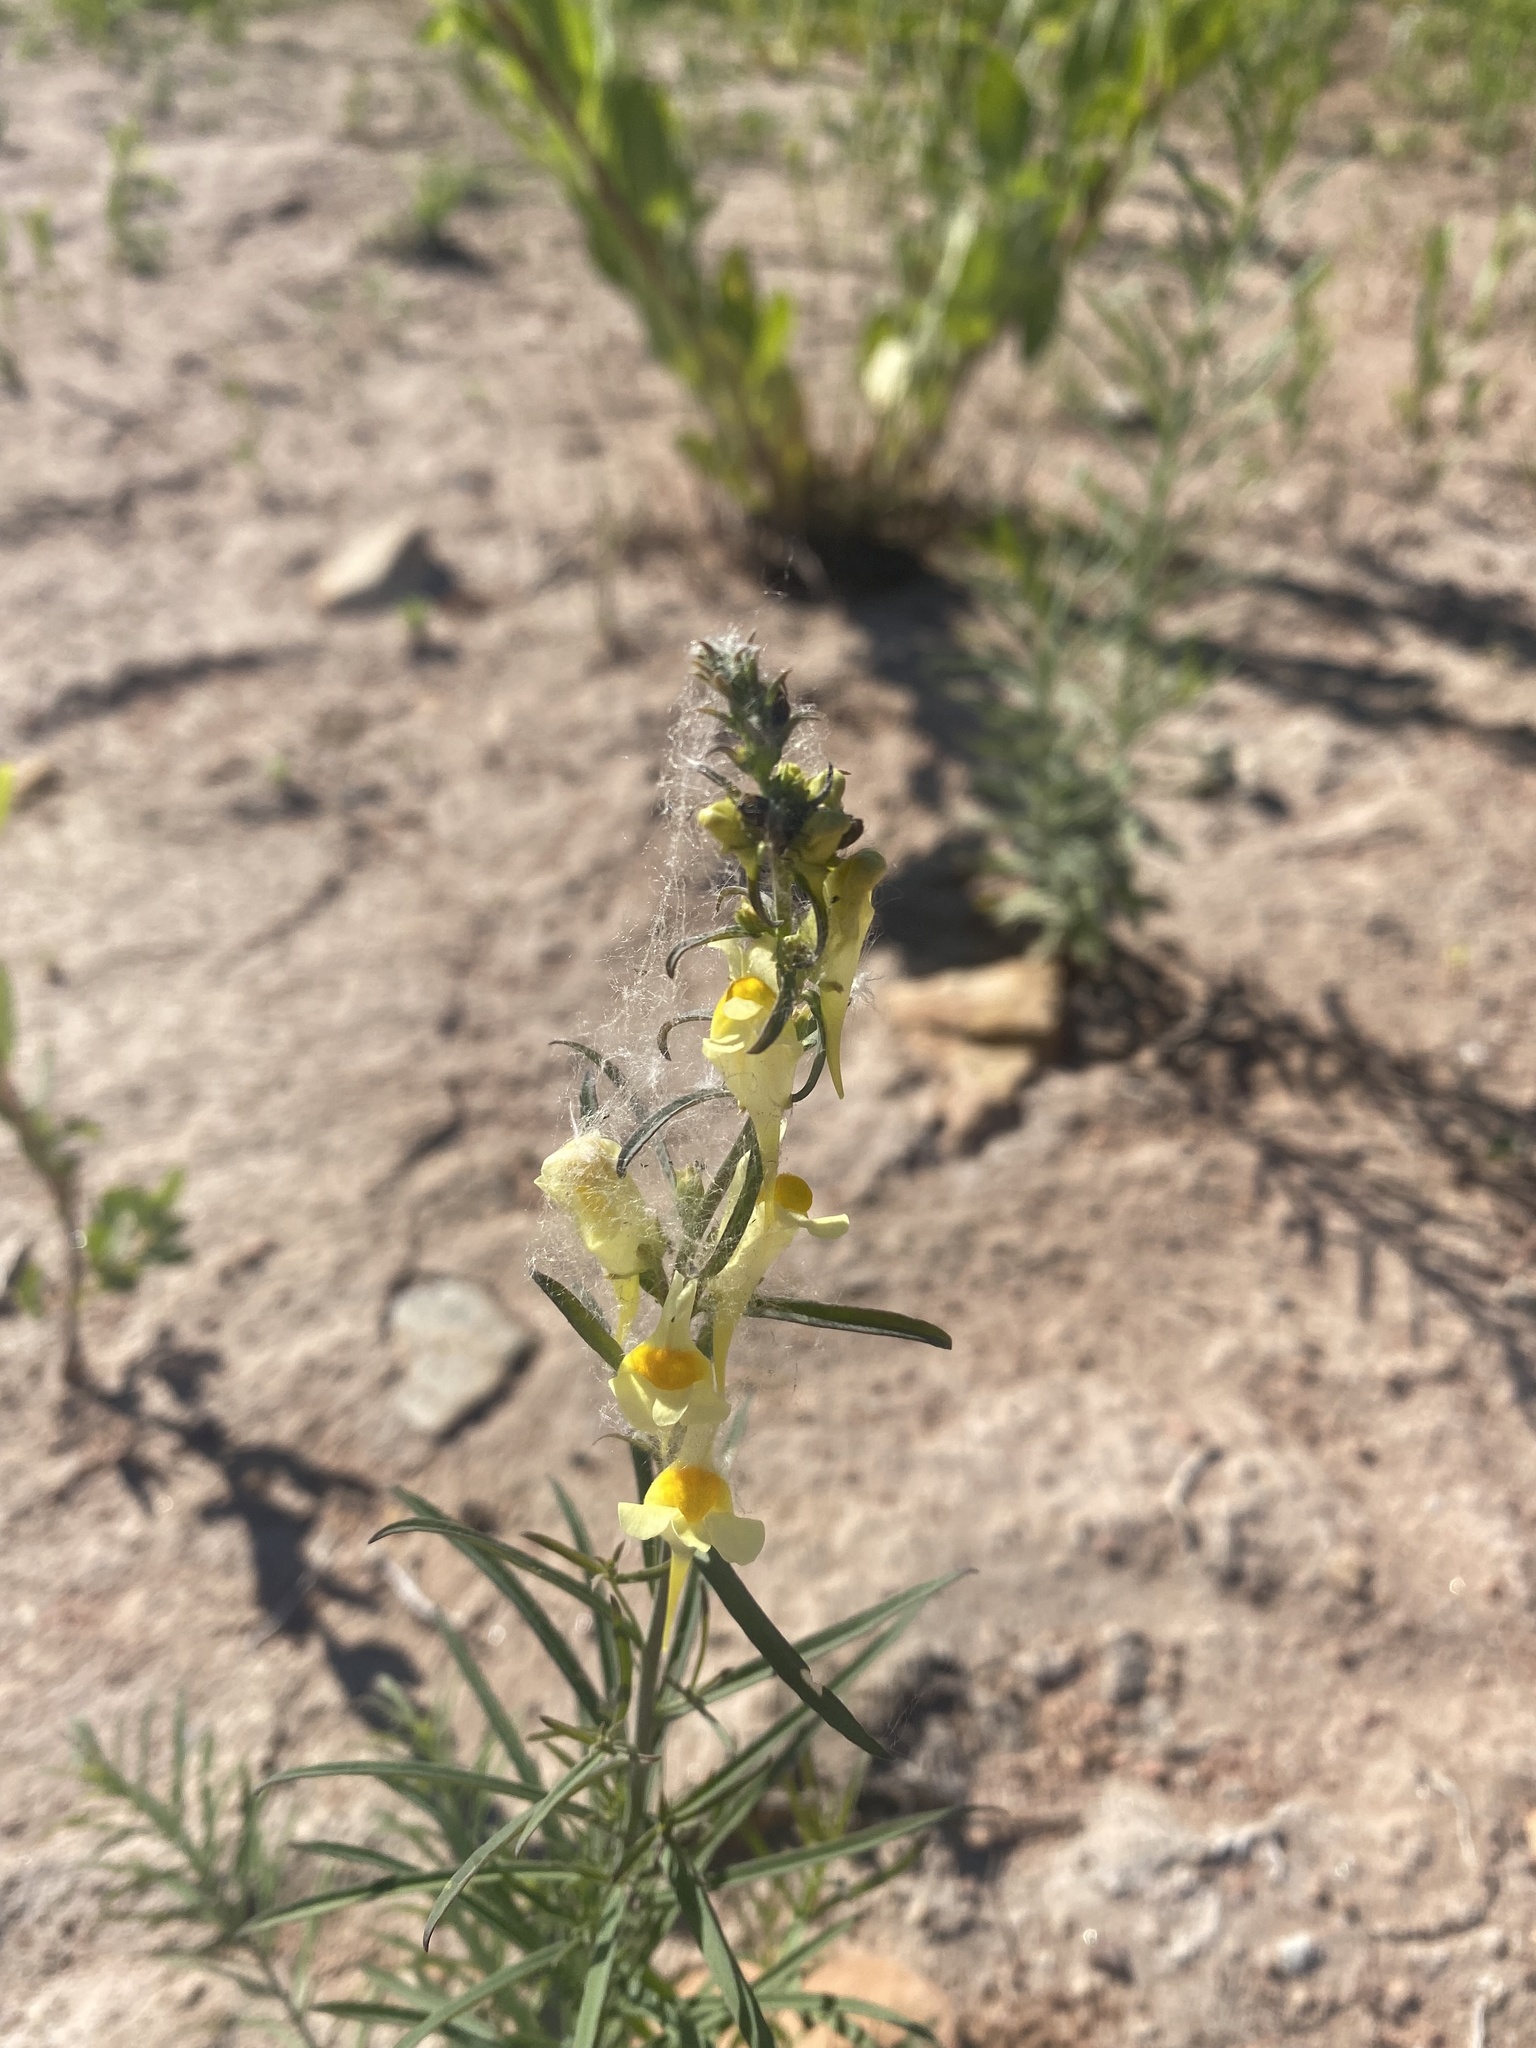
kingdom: Plantae
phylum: Tracheophyta
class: Magnoliopsida
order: Lamiales
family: Plantaginaceae
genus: Linaria
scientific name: Linaria vulgaris
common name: Butter and eggs
